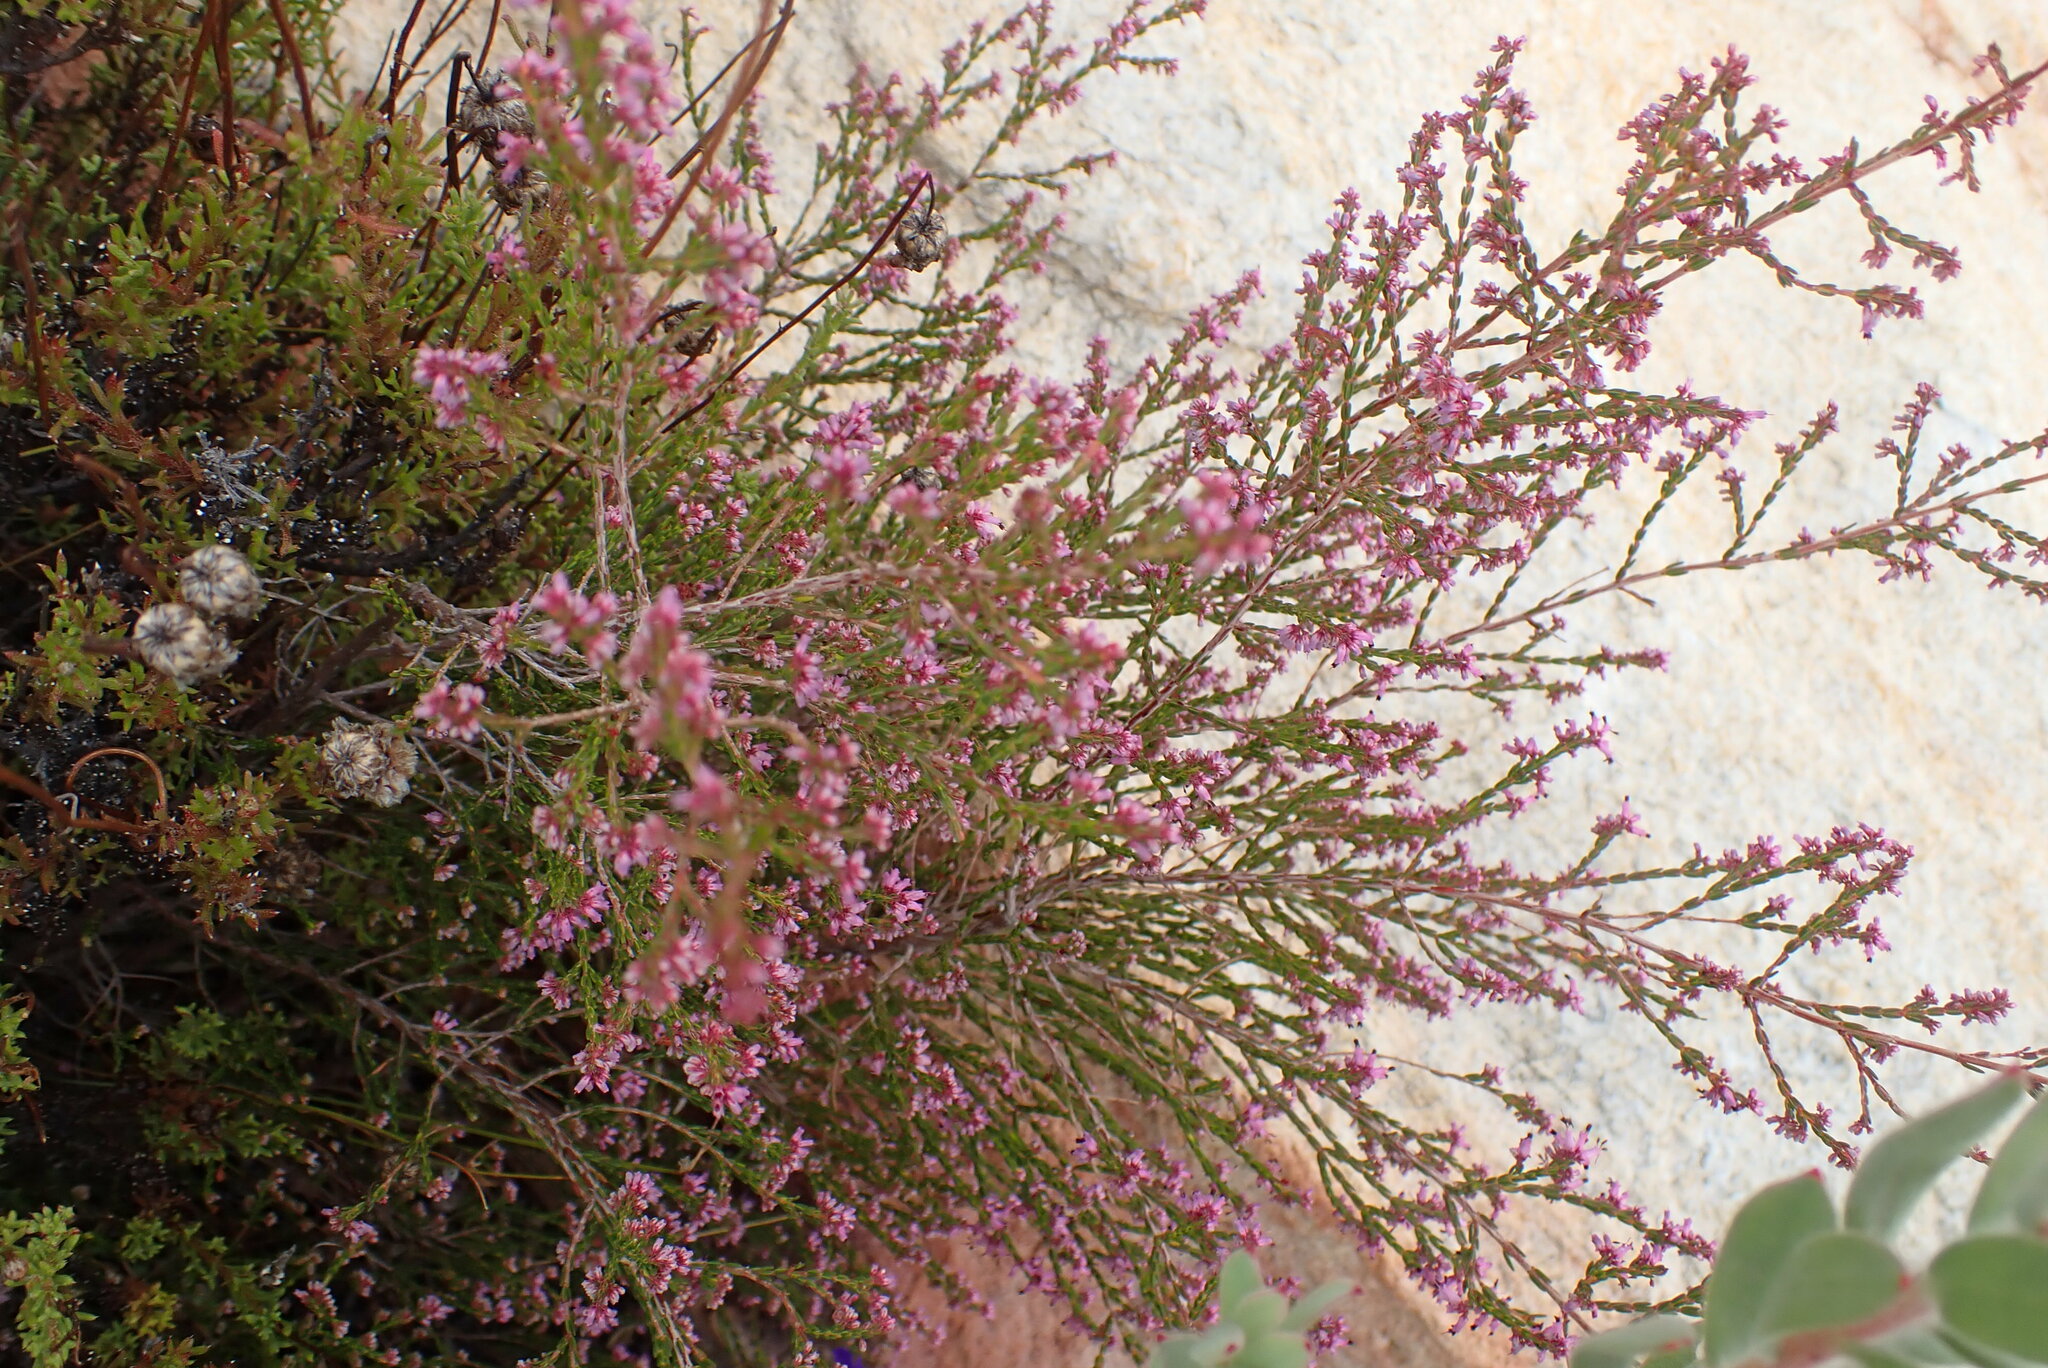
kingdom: Plantae
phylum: Tracheophyta
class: Magnoliopsida
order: Ericales
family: Ericaceae
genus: Erica
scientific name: Erica rosacea
